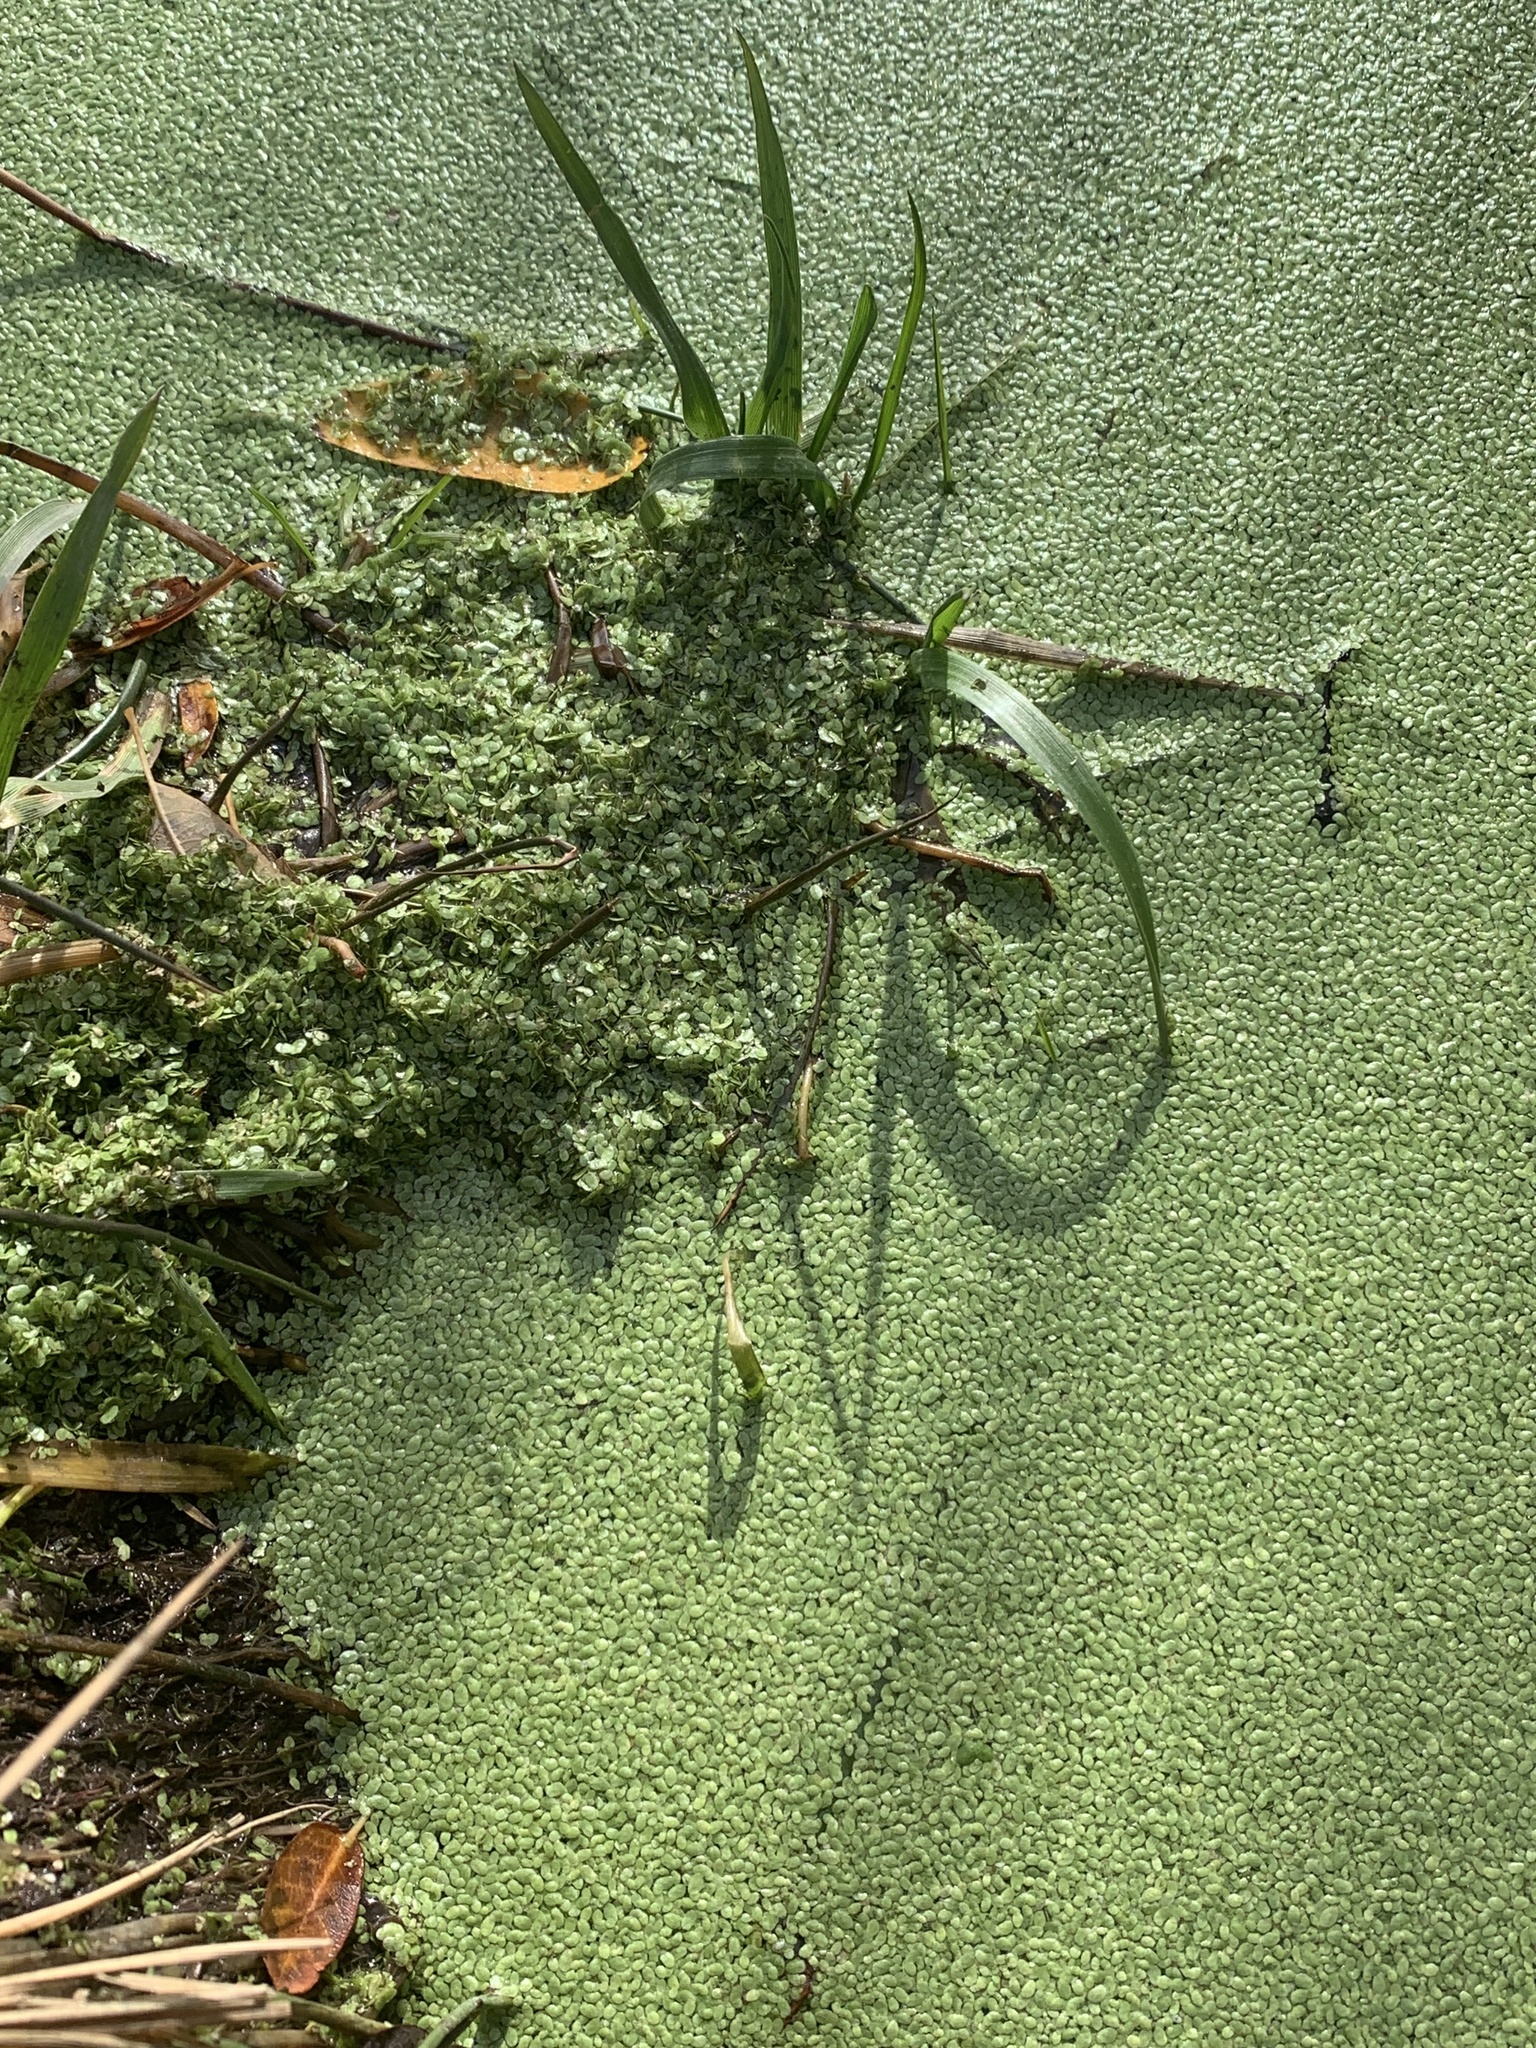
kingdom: Plantae
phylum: Tracheophyta
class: Liliopsida
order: Alismatales
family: Araceae
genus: Lemna
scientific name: Lemna minor
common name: Common duckweed
